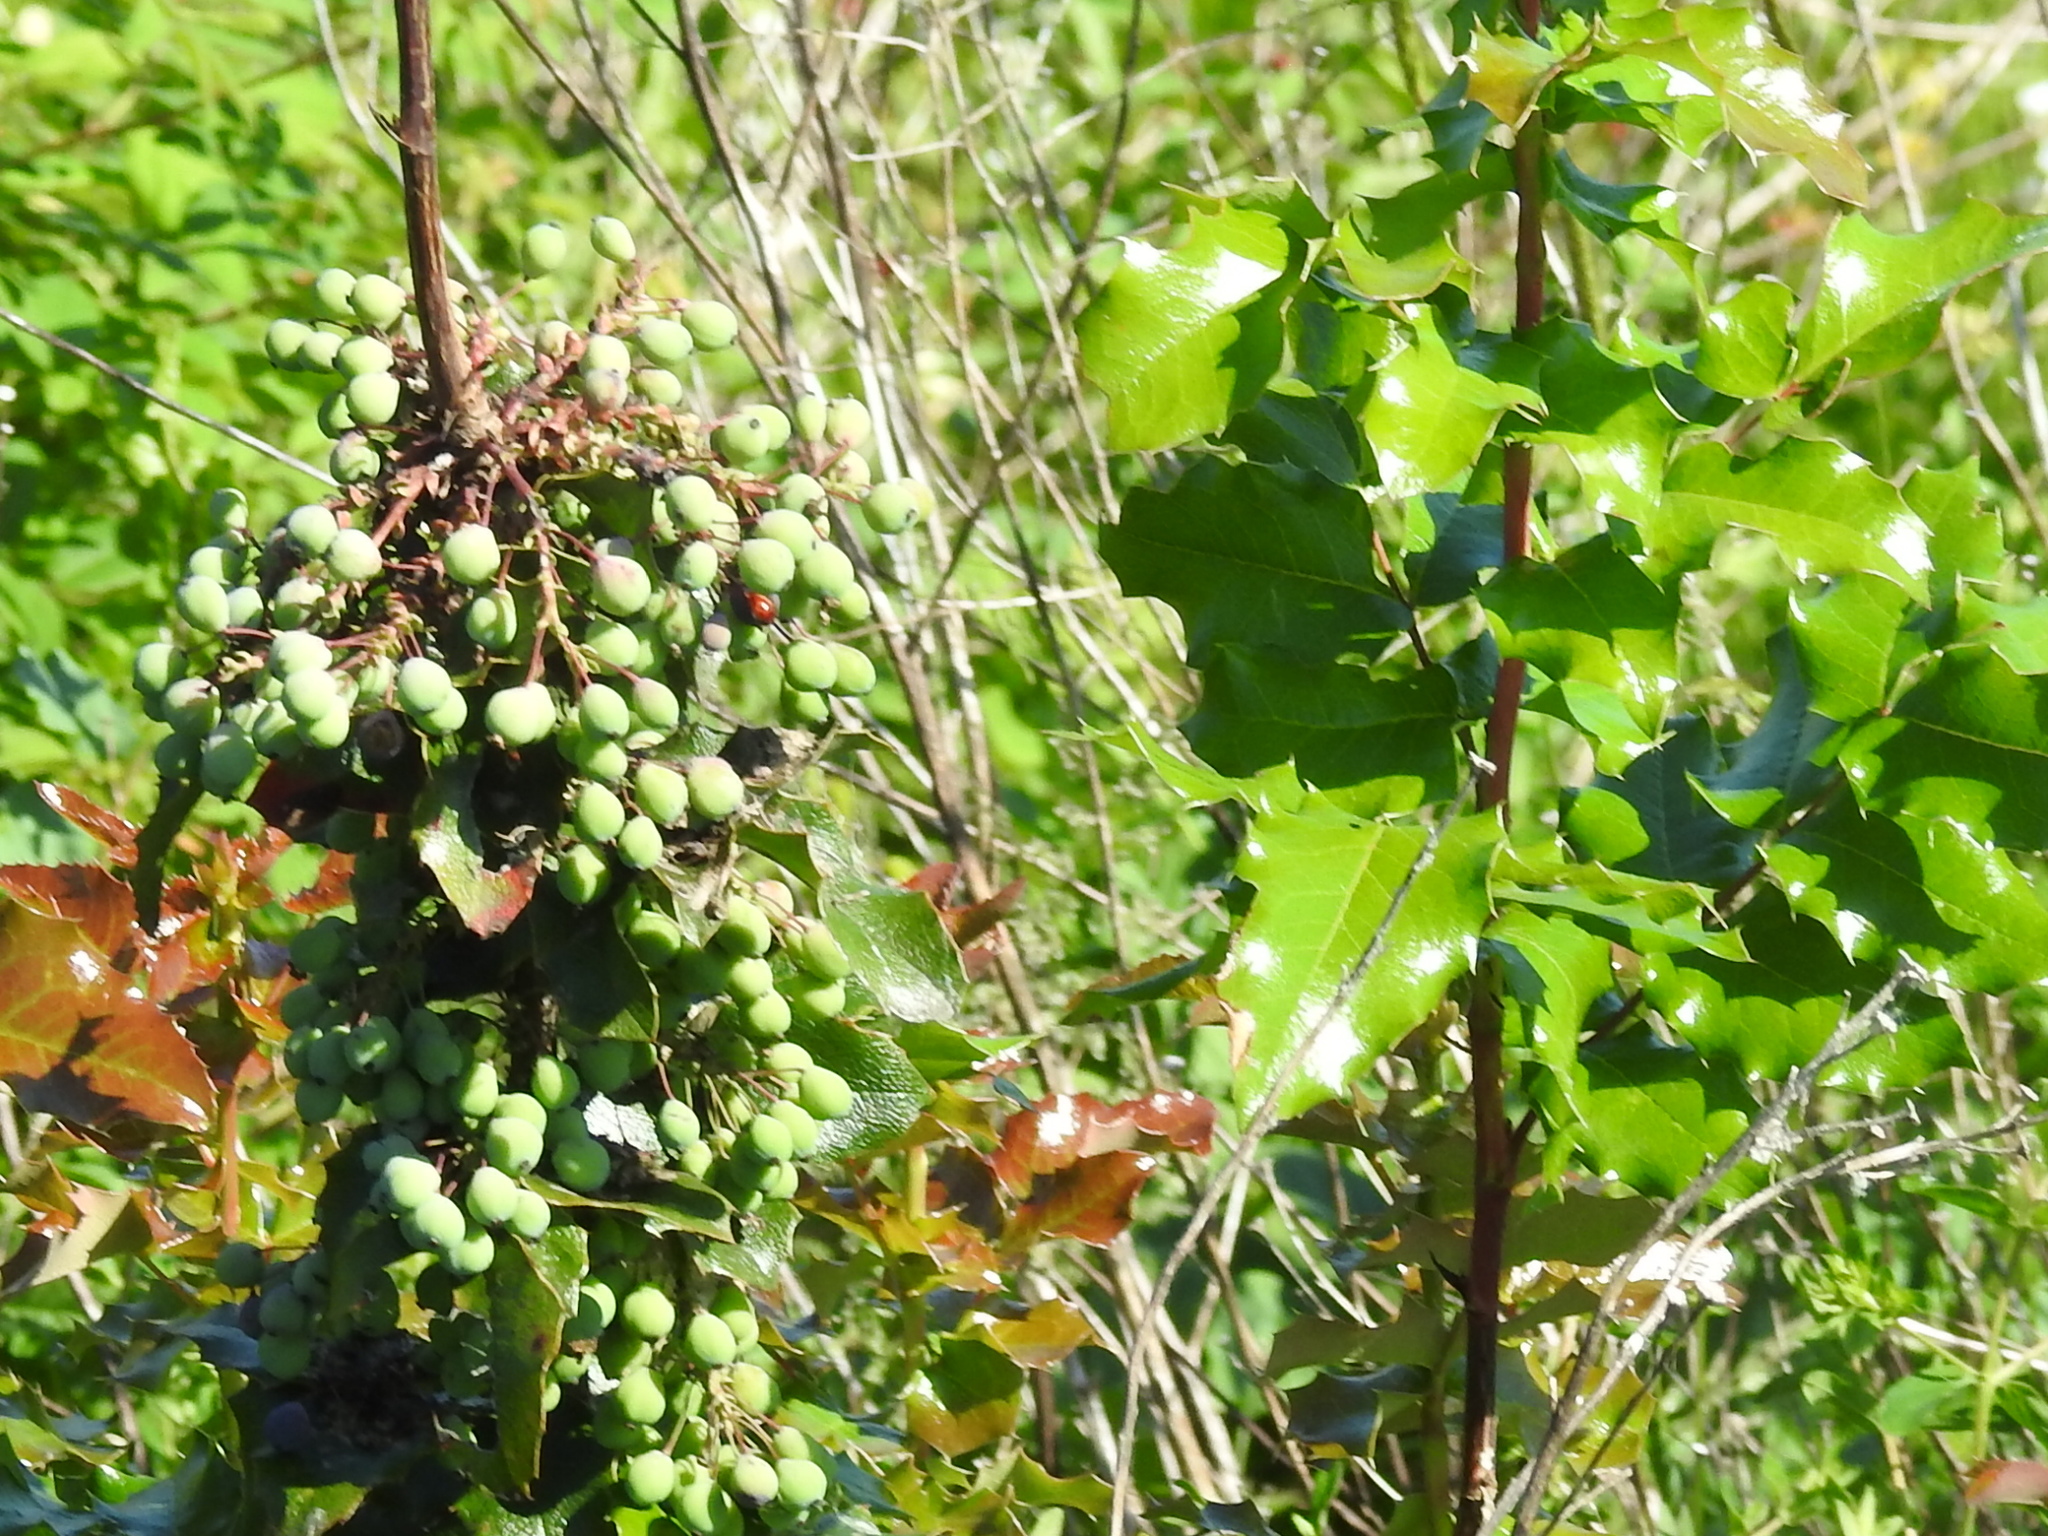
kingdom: Plantae
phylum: Tracheophyta
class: Magnoliopsida
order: Ranunculales
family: Berberidaceae
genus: Mahonia
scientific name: Mahonia aquifolium
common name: Oregon-grape
